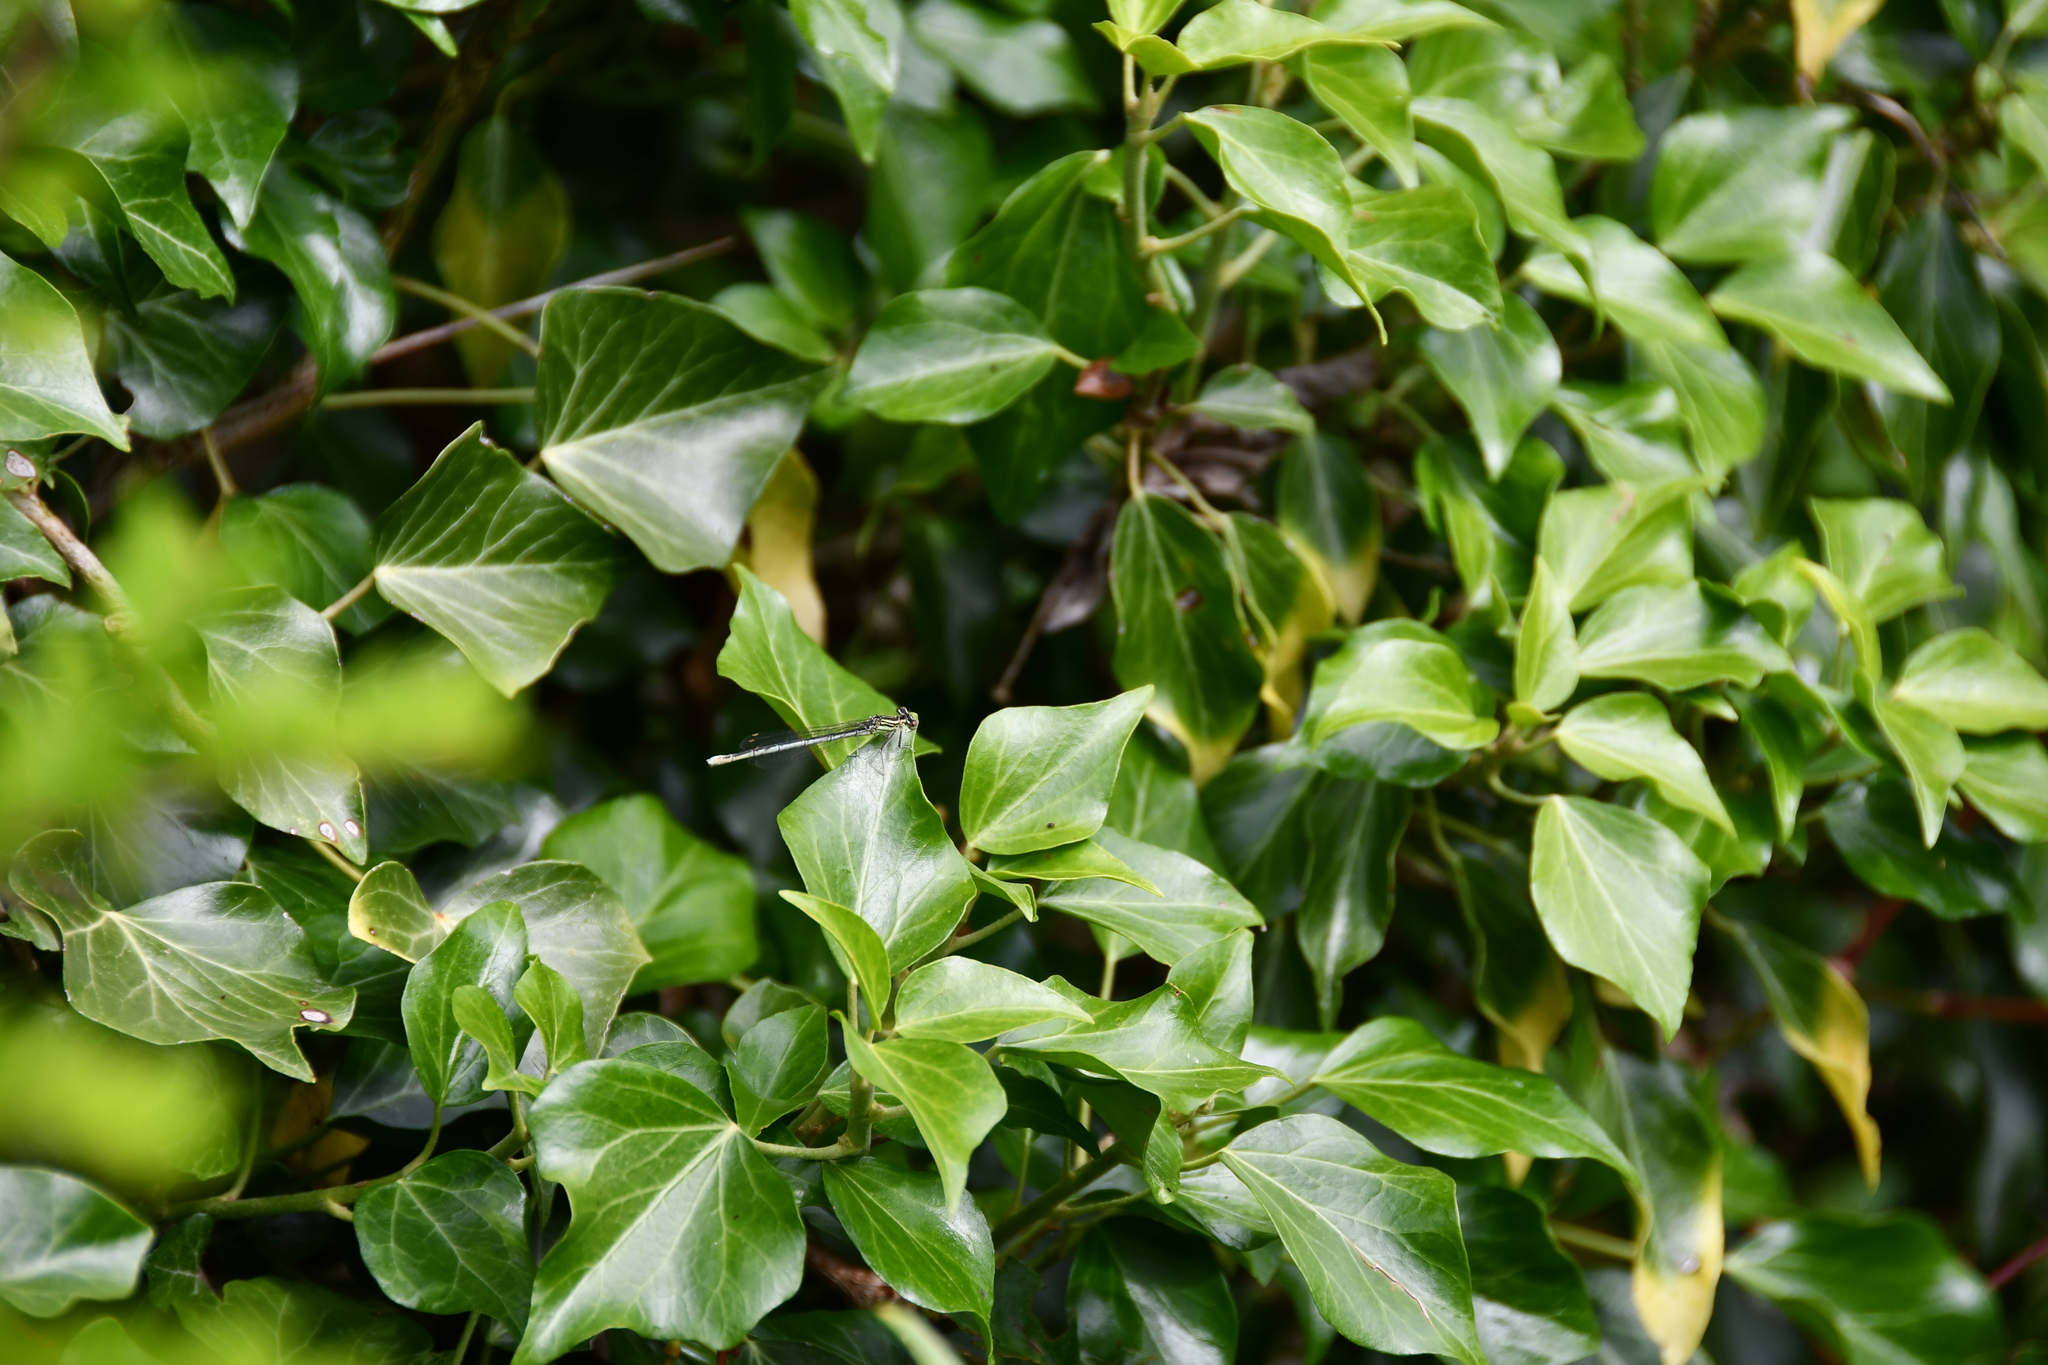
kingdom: Animalia
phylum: Arthropoda
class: Insecta
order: Odonata
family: Platycnemididae
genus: Platycnemis
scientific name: Platycnemis pennipes
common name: White-legged damselfly
